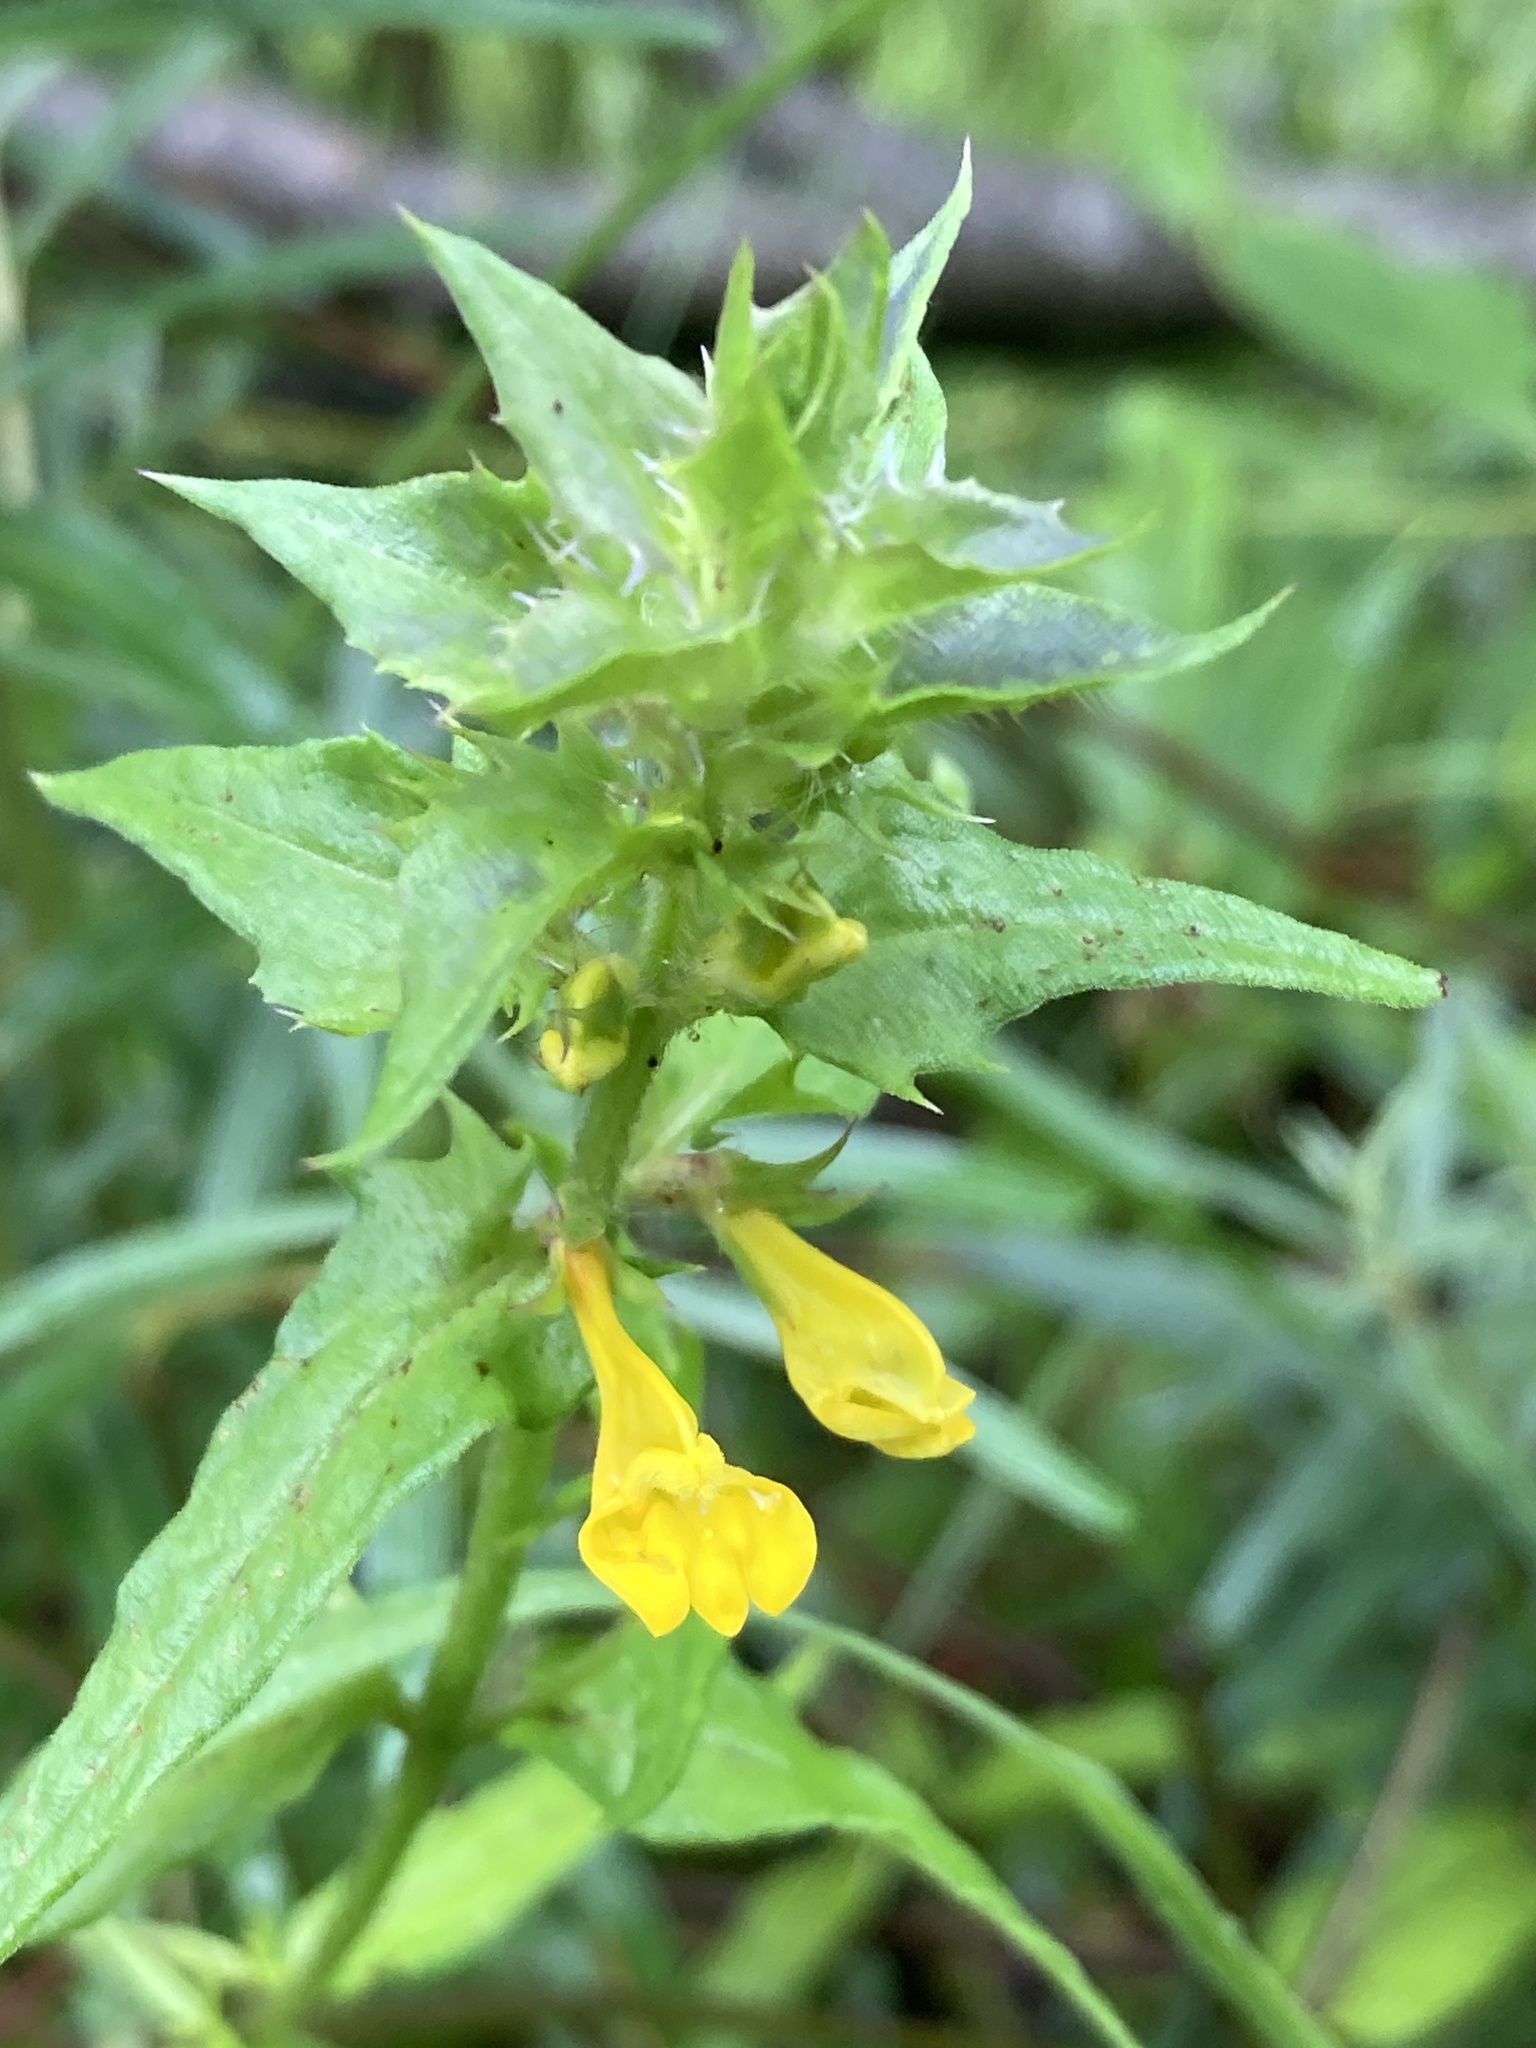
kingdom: Plantae
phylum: Tracheophyta
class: Magnoliopsida
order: Lamiales
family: Orobanchaceae
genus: Melampyrum
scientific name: Melampyrum nemorosum
